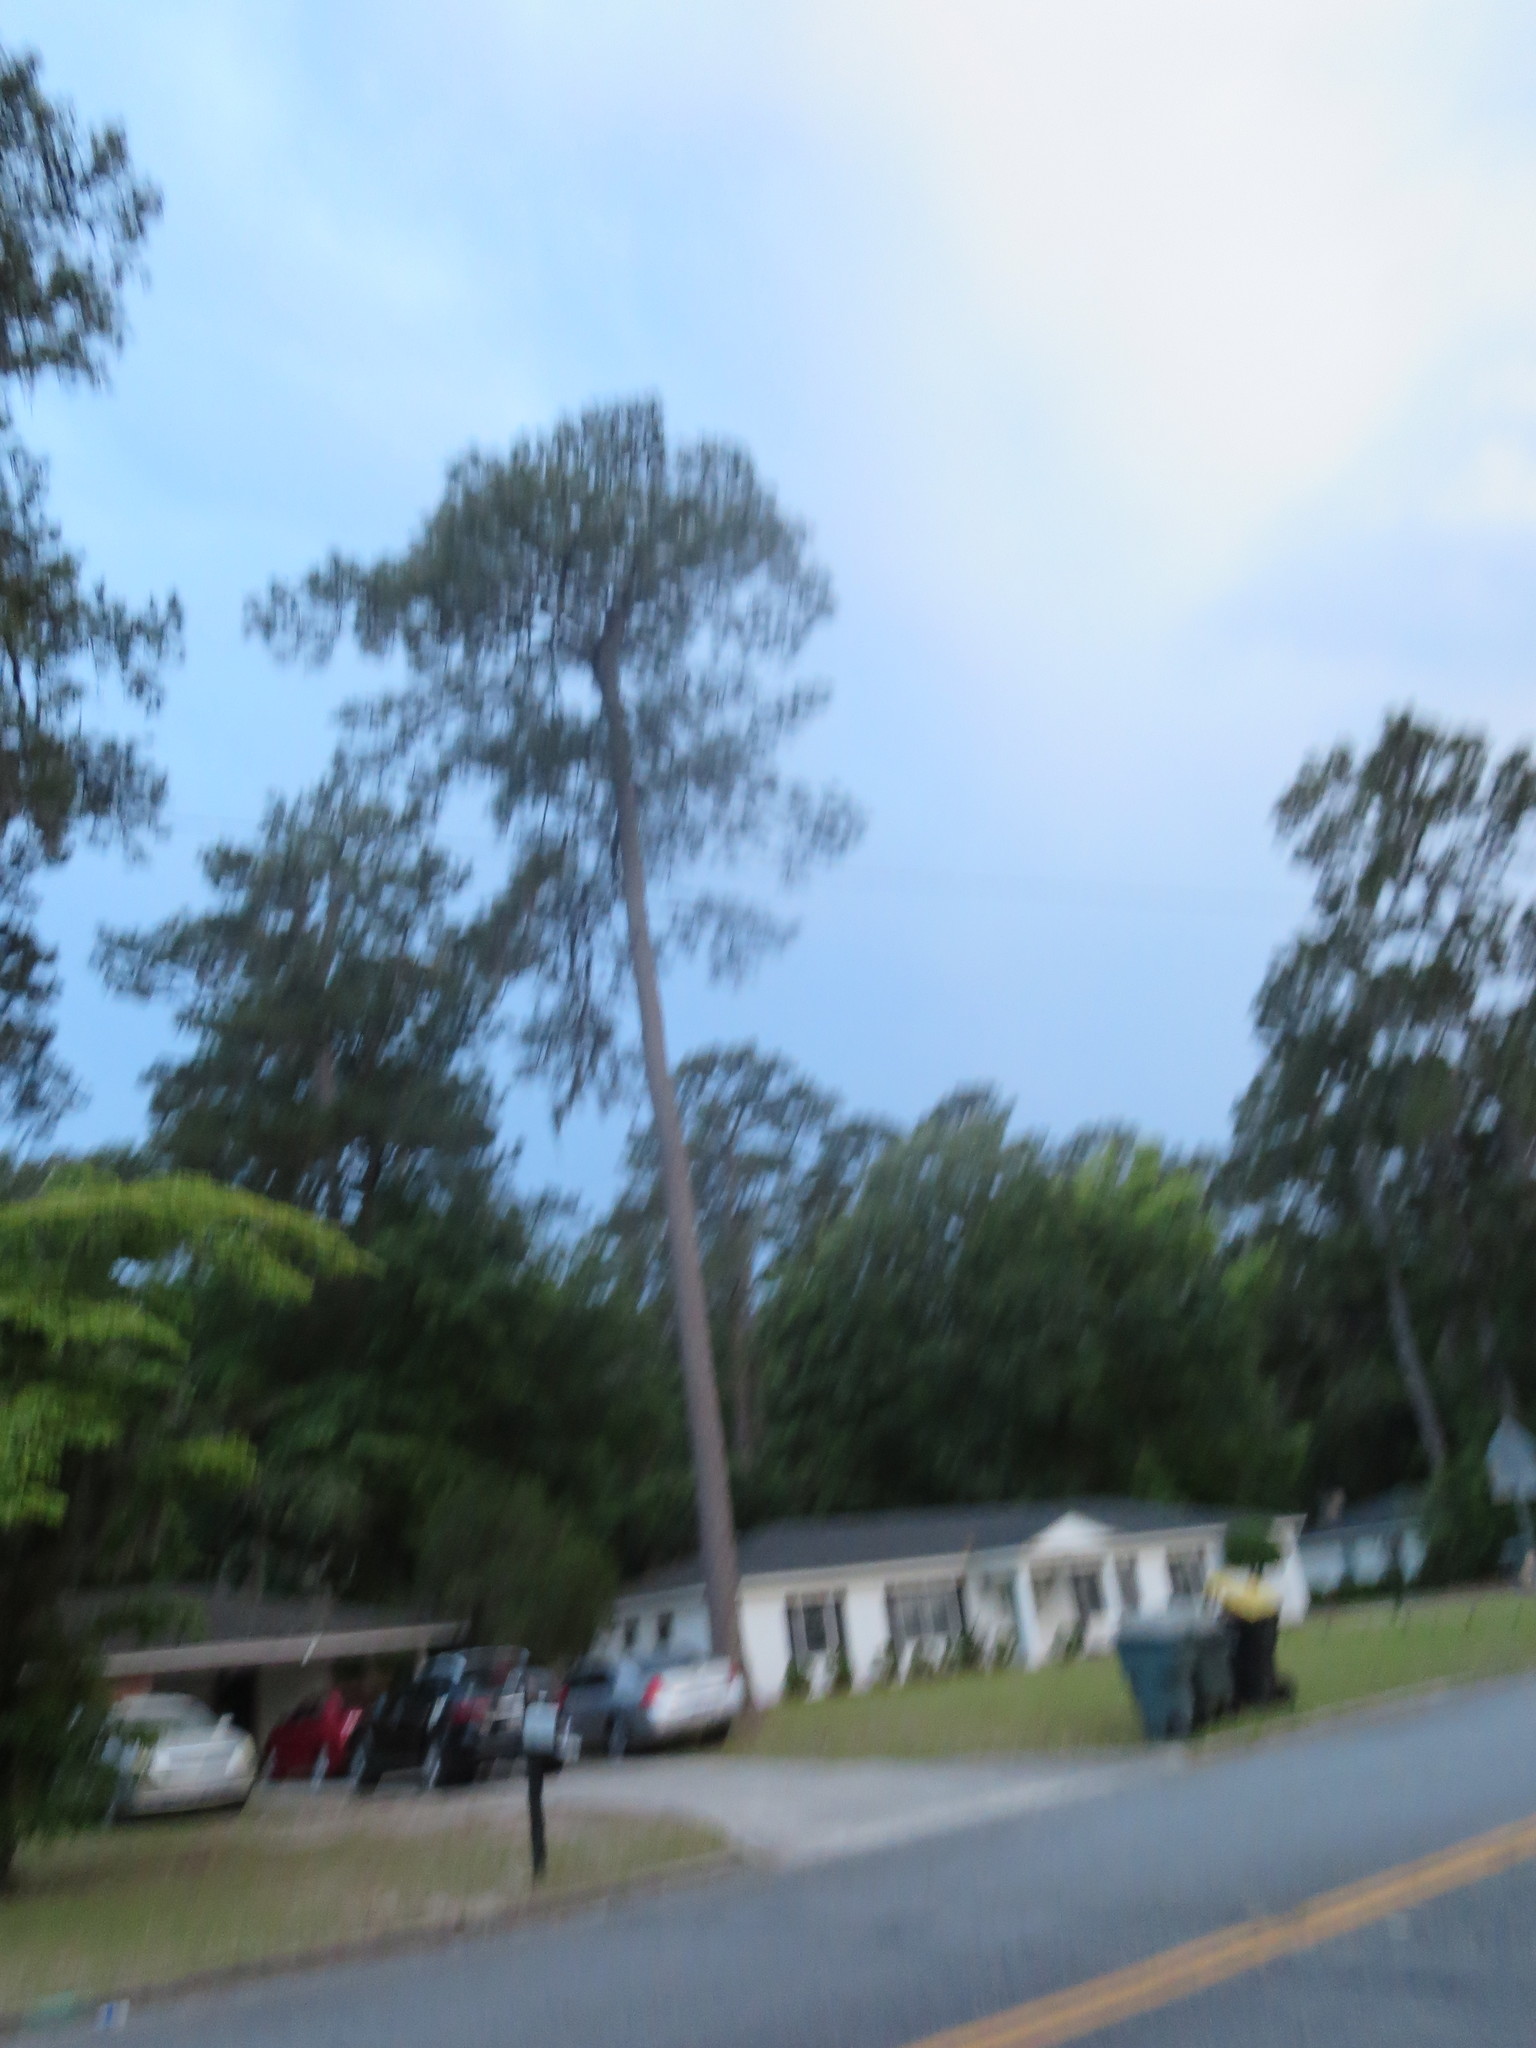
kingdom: Plantae
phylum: Tracheophyta
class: Pinopsida
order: Pinales
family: Pinaceae
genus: Pinus
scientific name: Pinus
